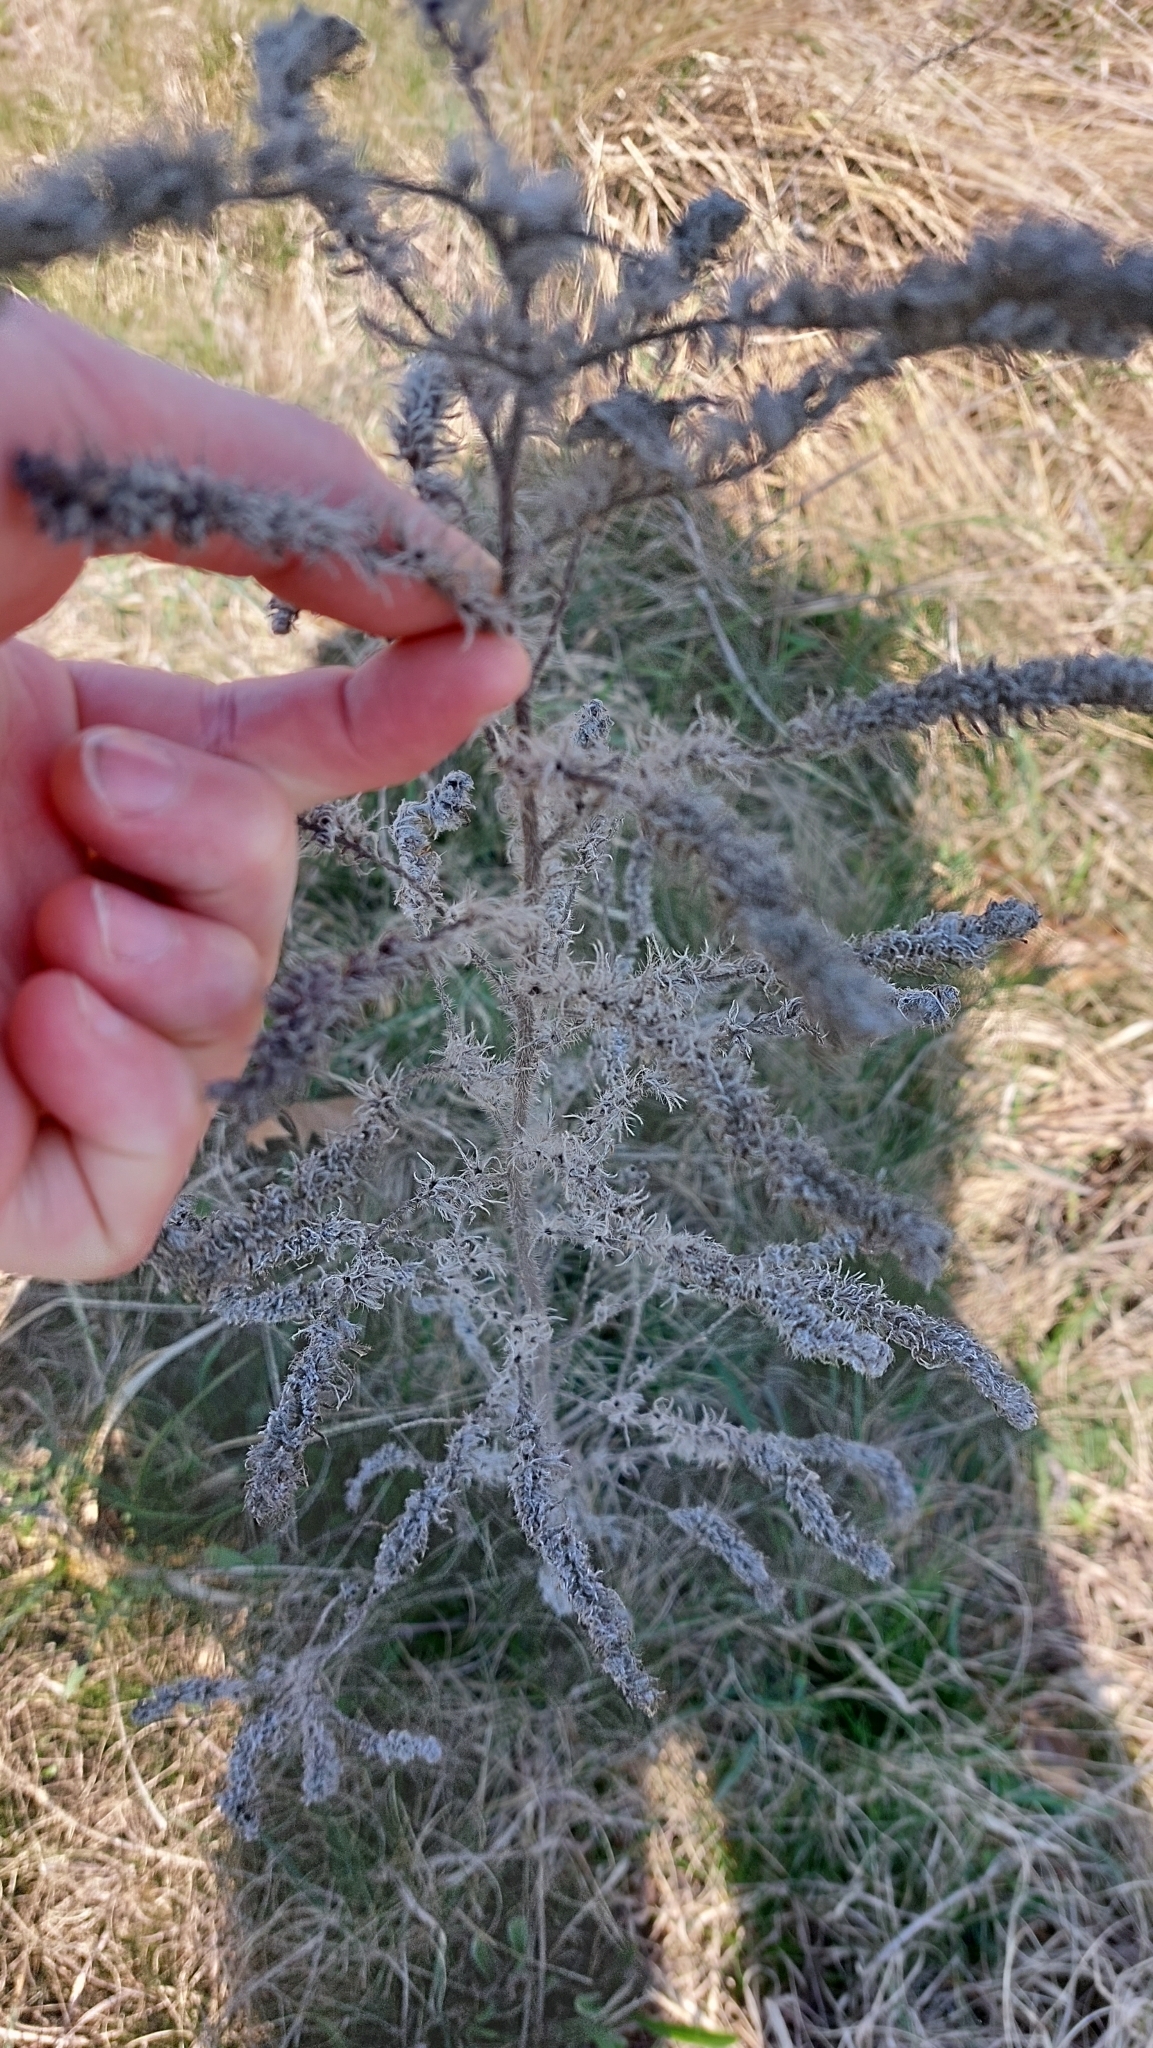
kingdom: Plantae
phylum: Tracheophyta
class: Magnoliopsida
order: Boraginales
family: Boraginaceae
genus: Echium
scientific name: Echium vulgare
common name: Common viper's bugloss
